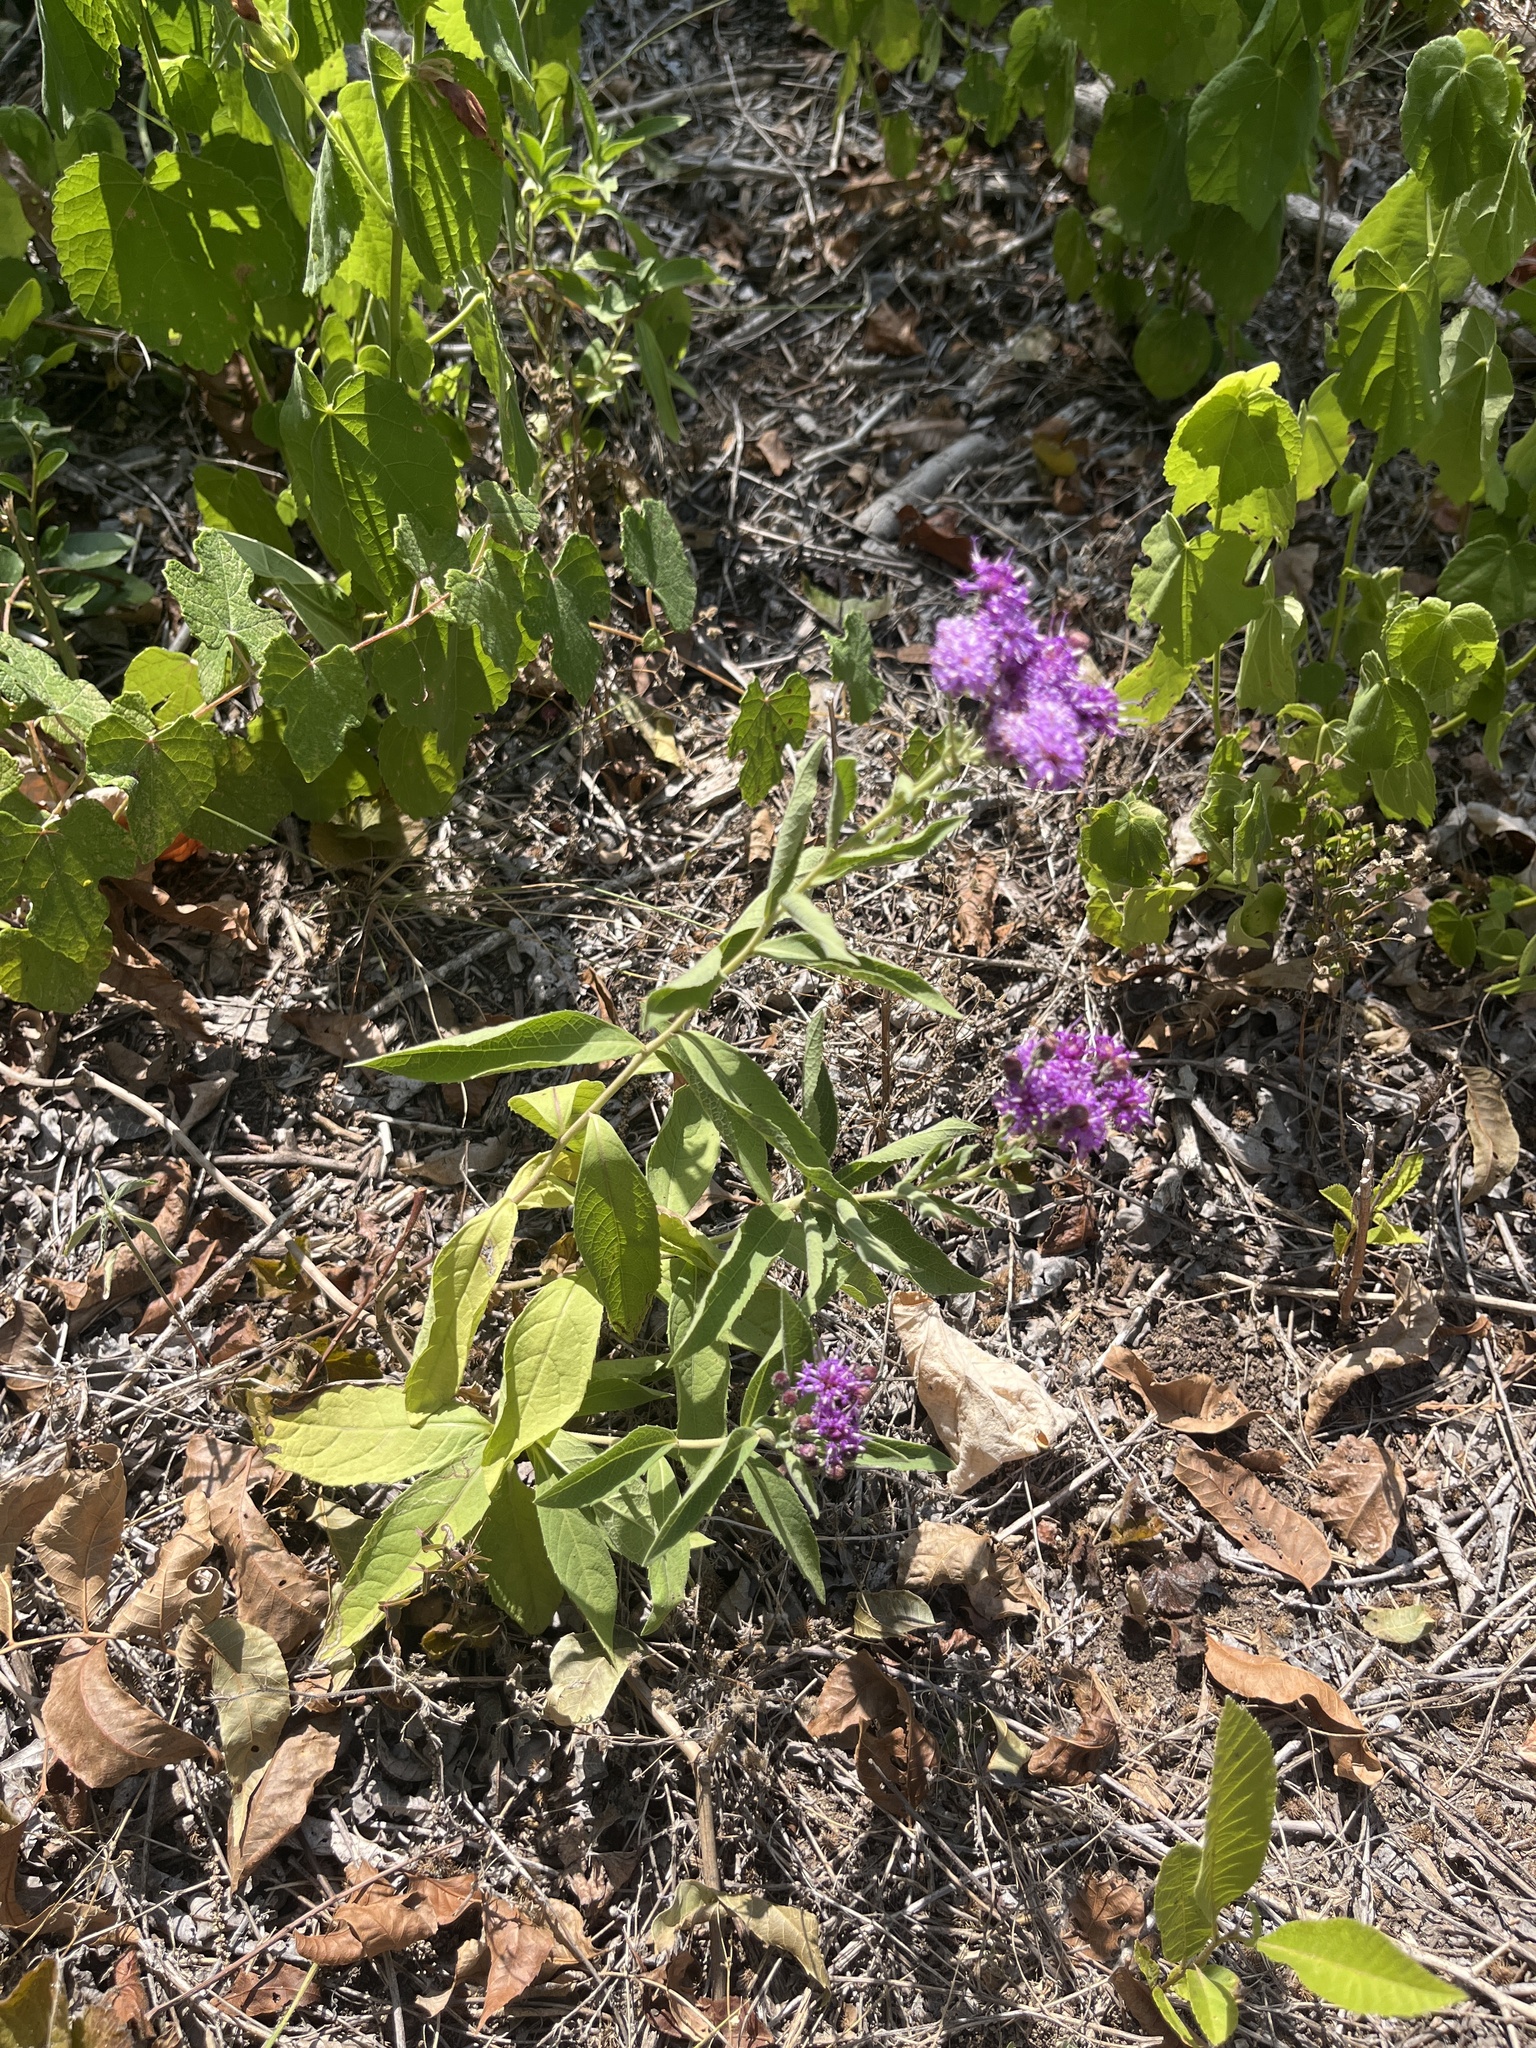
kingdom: Plantae
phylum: Tracheophyta
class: Magnoliopsida
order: Asterales
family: Asteraceae
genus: Vernonia
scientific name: Vernonia baldwinii
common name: Western ironweed
